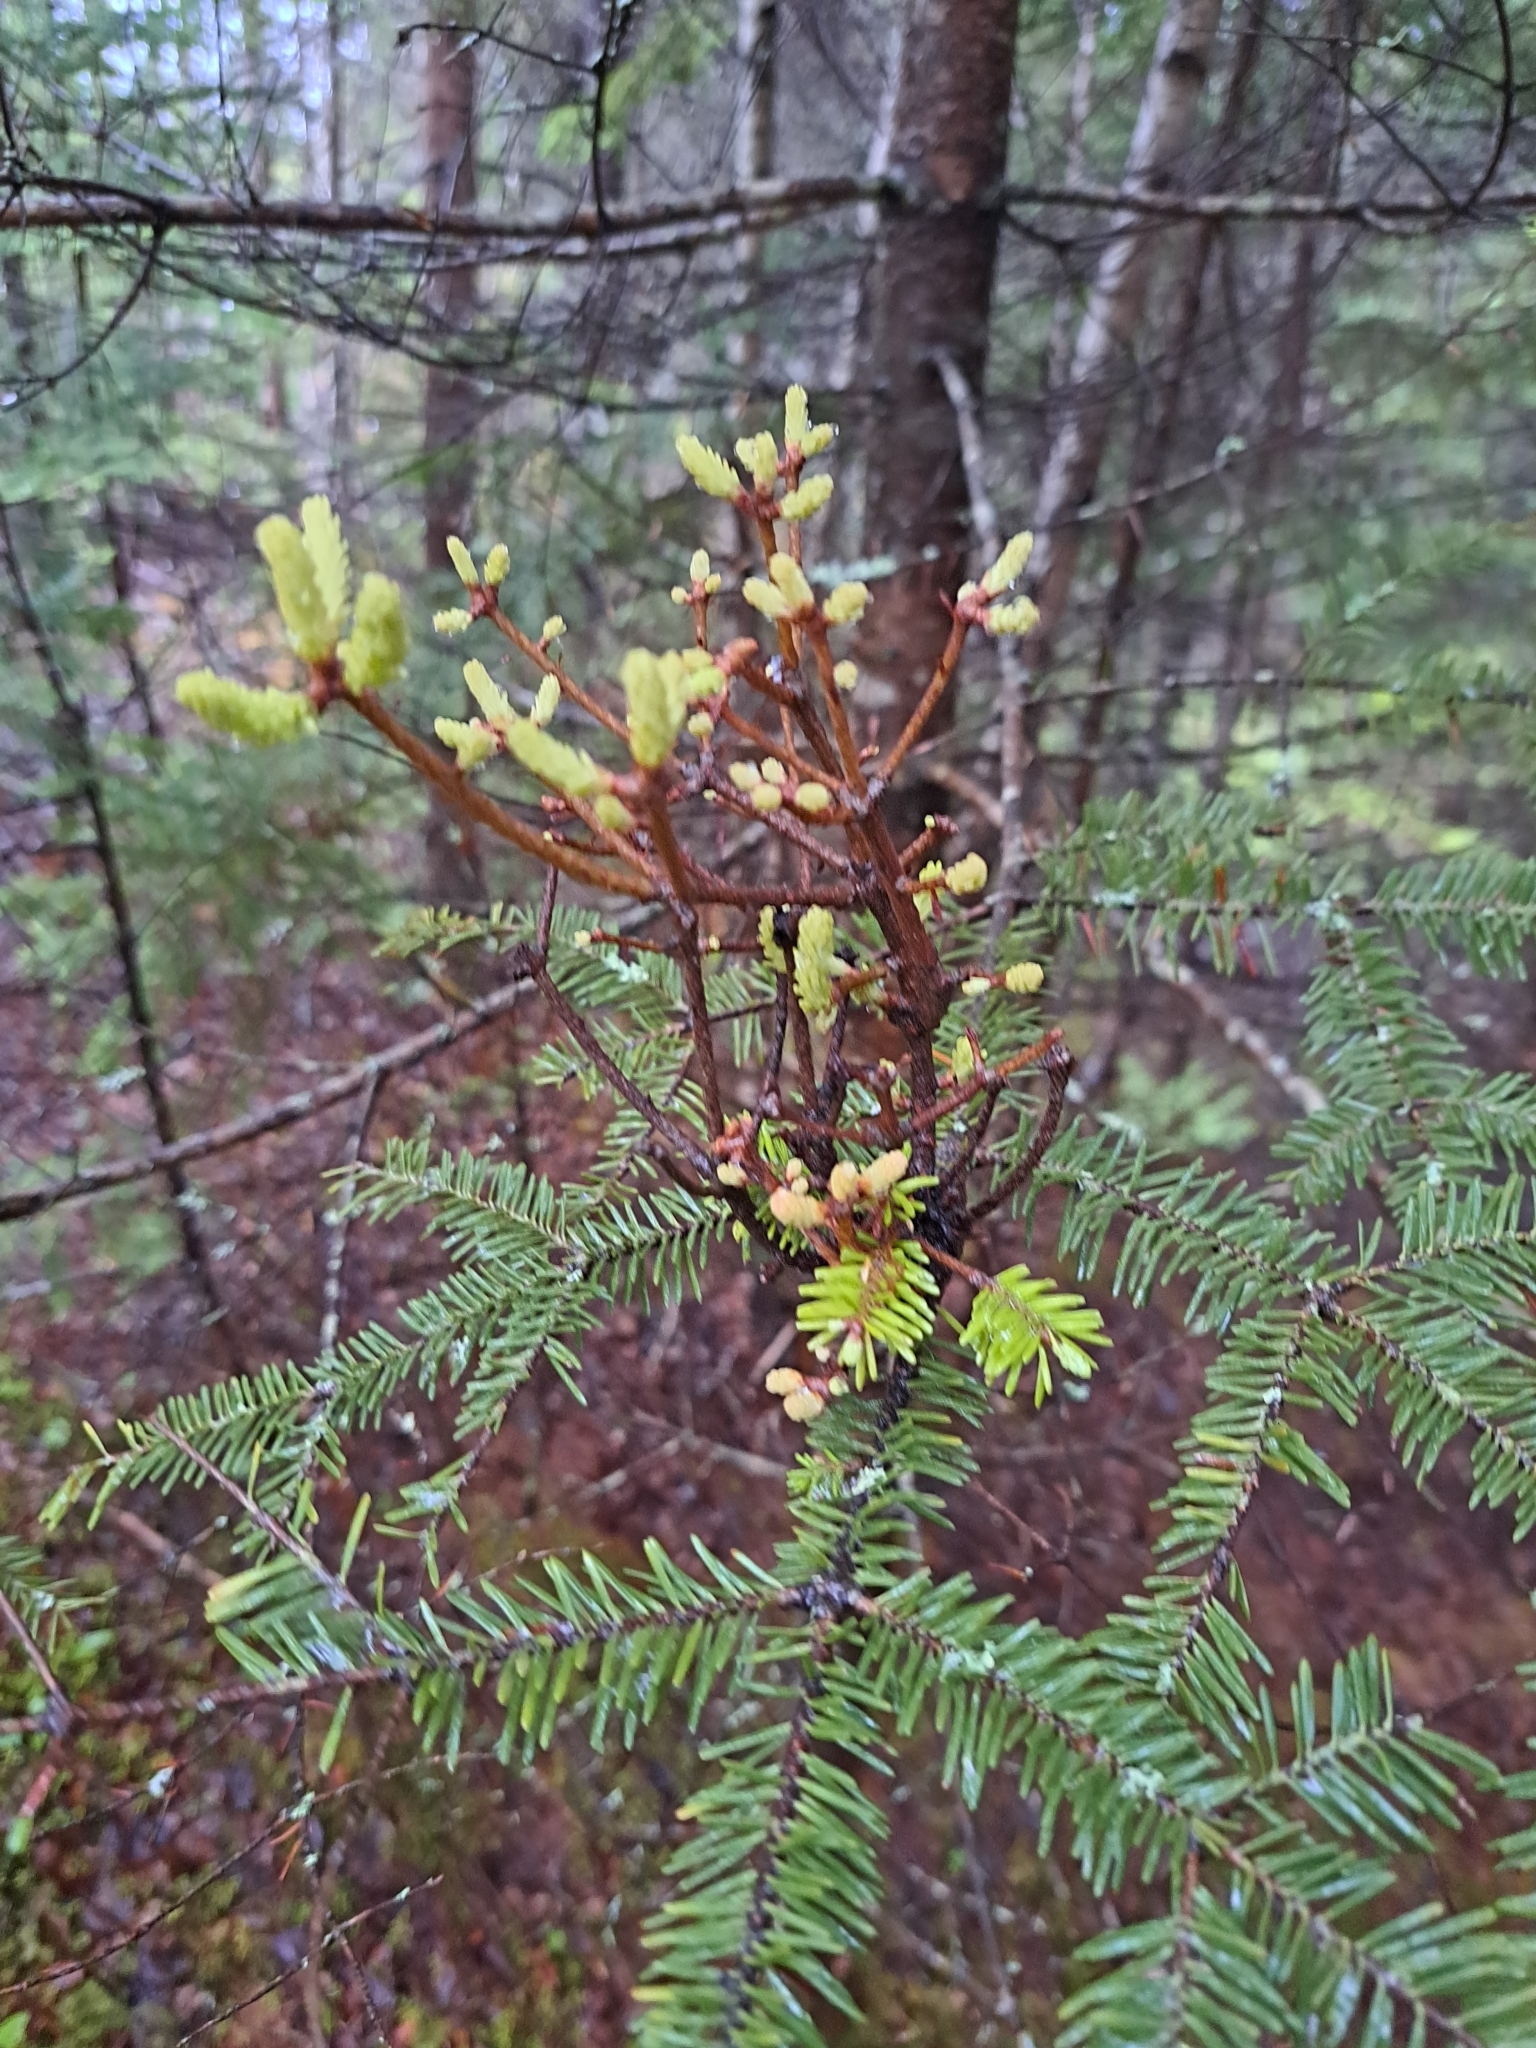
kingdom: Fungi
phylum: Basidiomycota
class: Pucciniomycetes
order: Pucciniales
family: Pucciniastraceae
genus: Melampsorella
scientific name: Melampsorella elatina
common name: Fir broom rust
